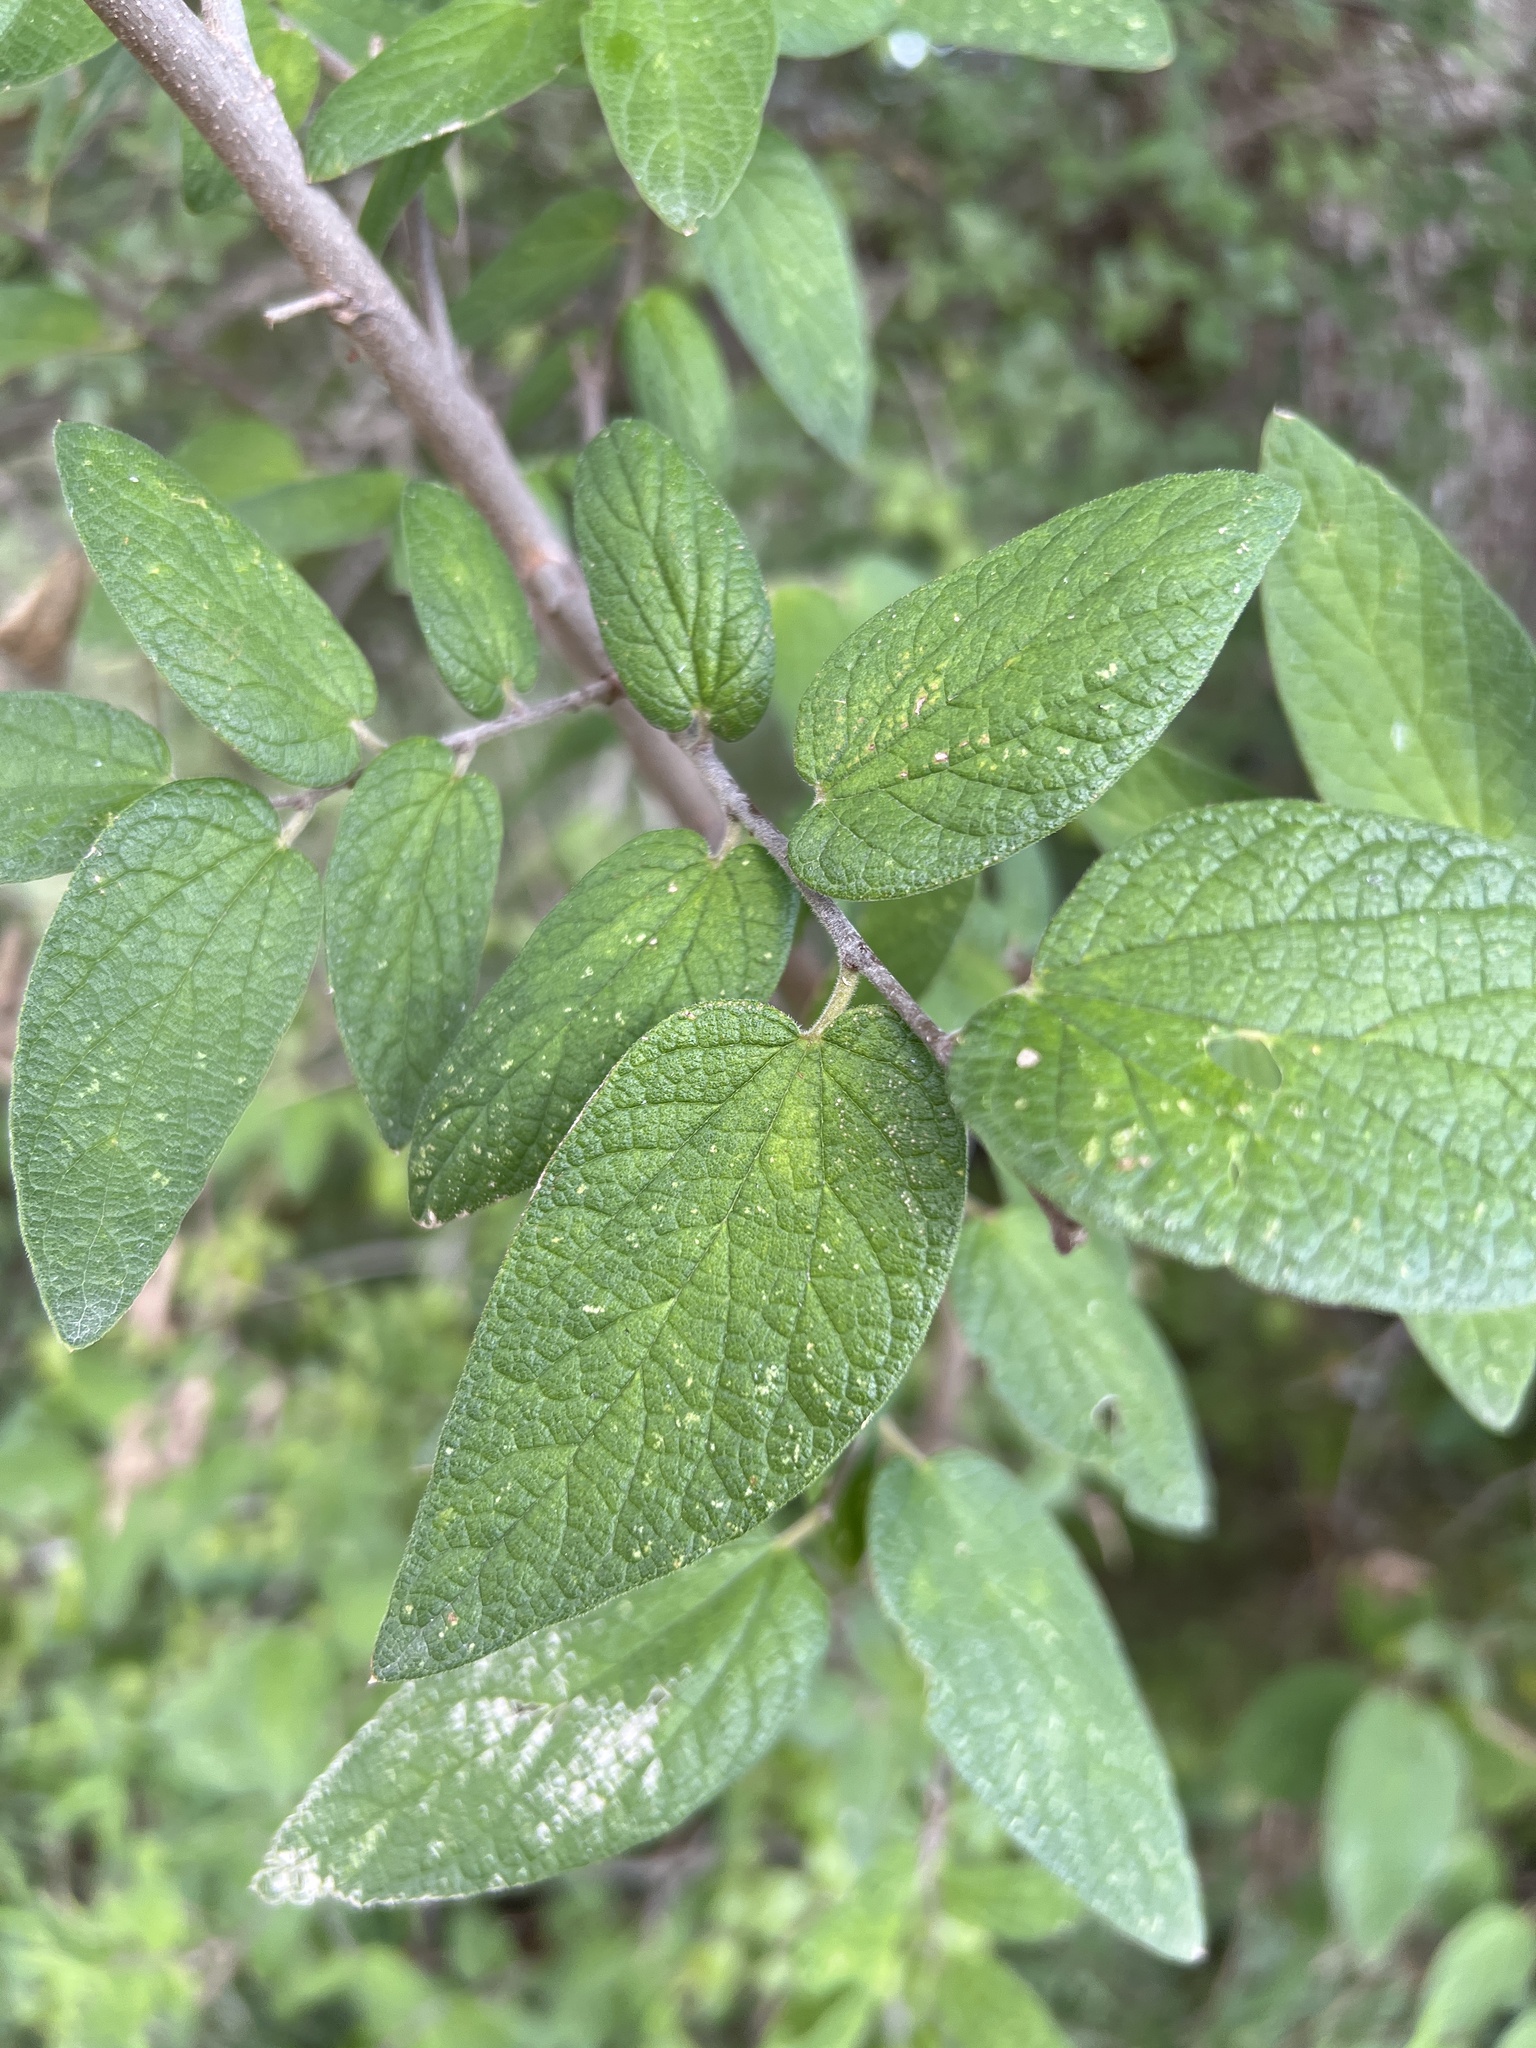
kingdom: Plantae
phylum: Tracheophyta
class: Magnoliopsida
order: Rosales
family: Cannabaceae
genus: Celtis
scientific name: Celtis reticulata
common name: Netleaf hackberry
